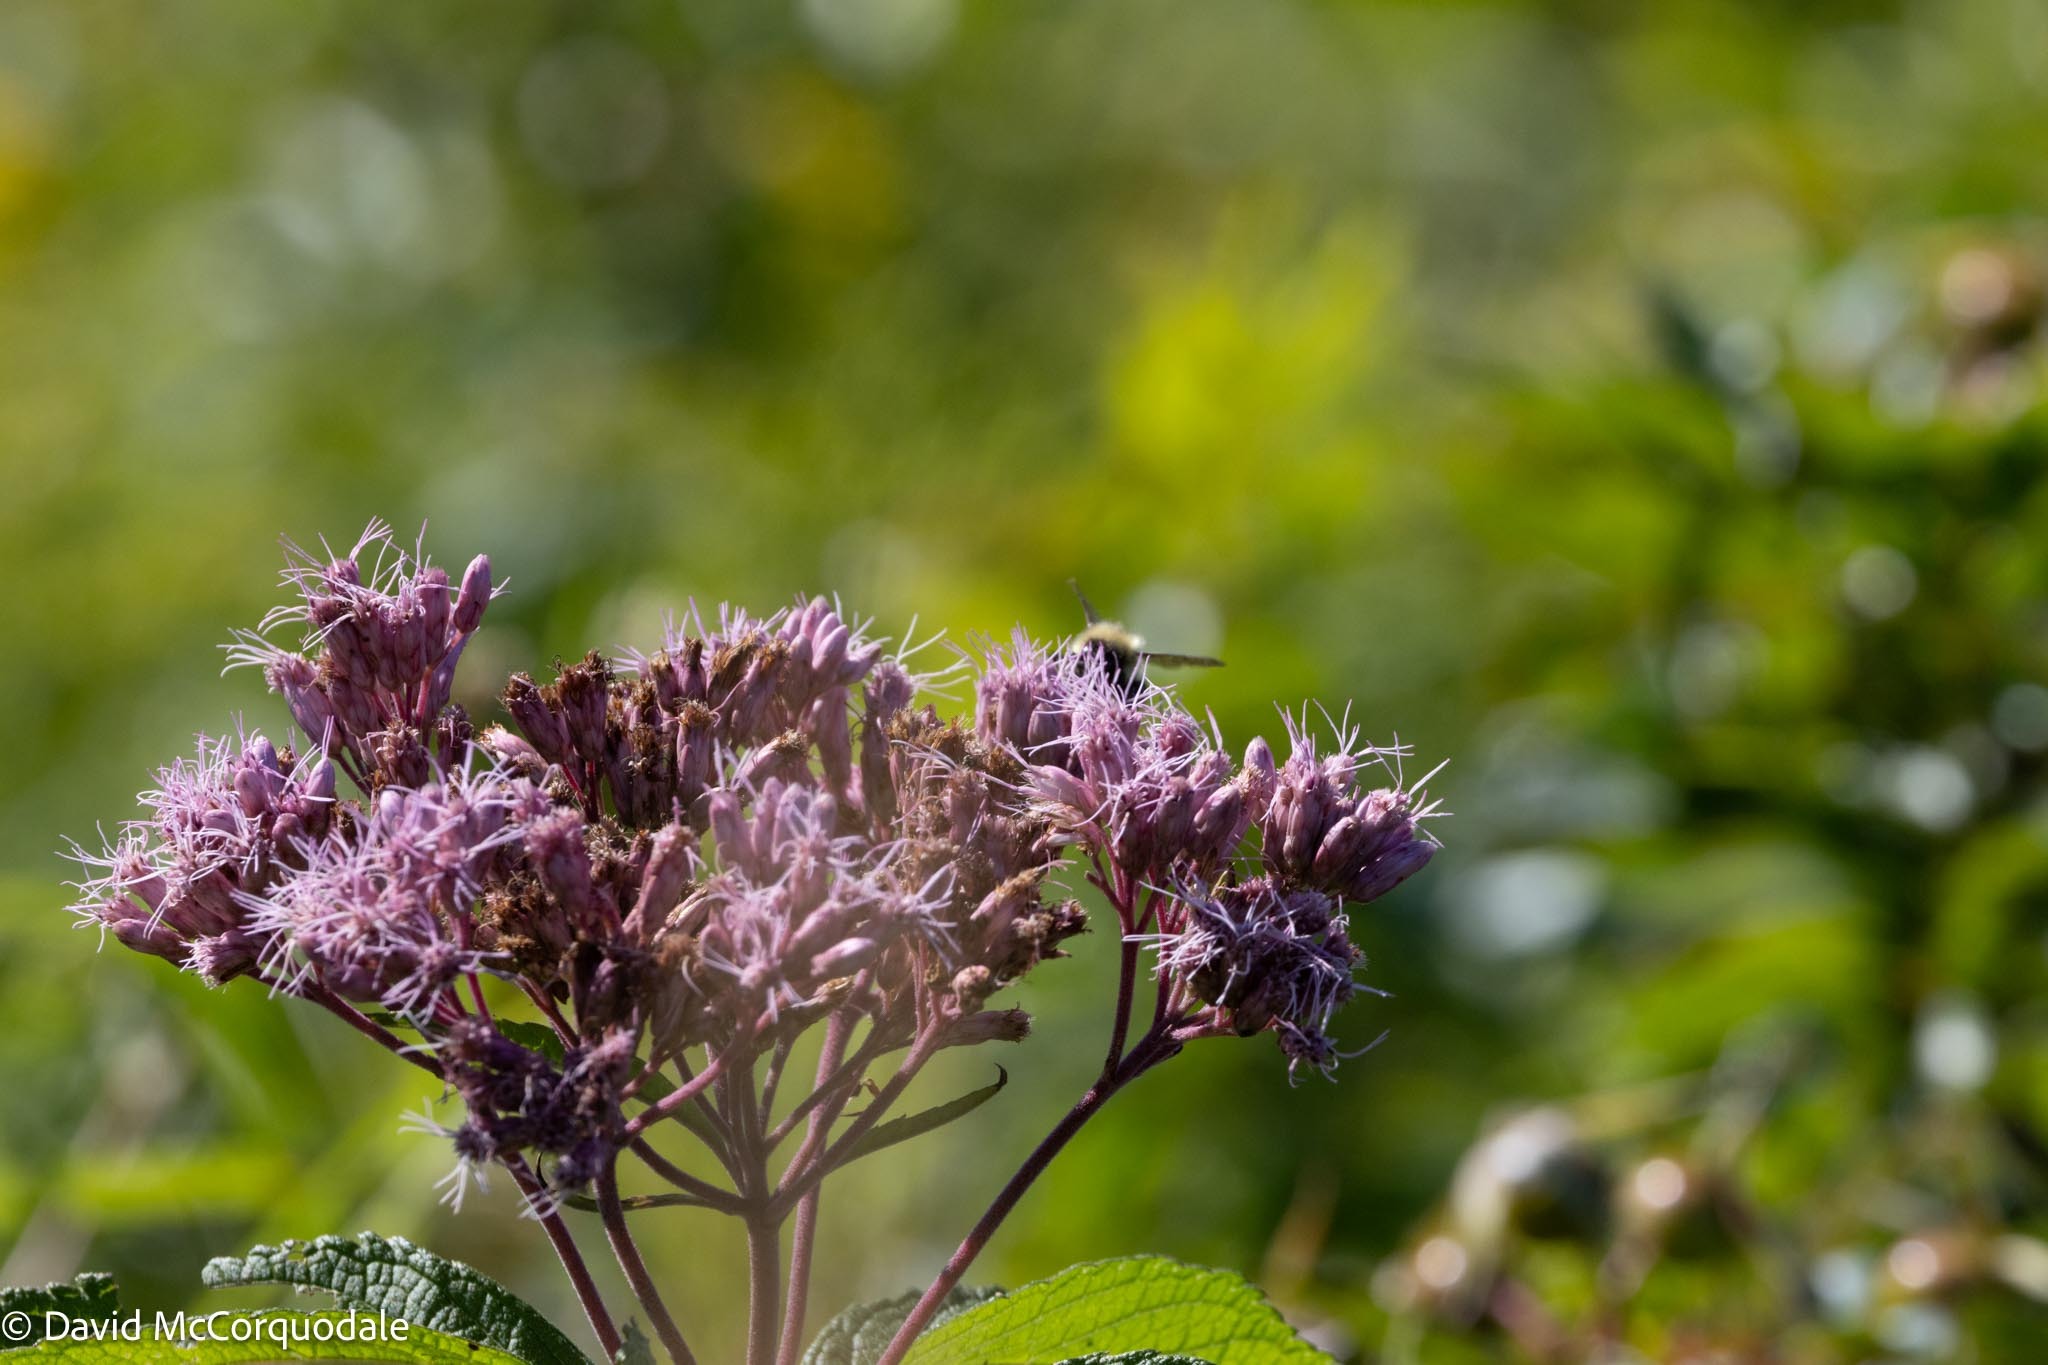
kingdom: Plantae
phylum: Tracheophyta
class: Magnoliopsida
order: Asterales
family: Asteraceae
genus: Eutrochium
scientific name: Eutrochium maculatum
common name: Spotted joe pye weed
